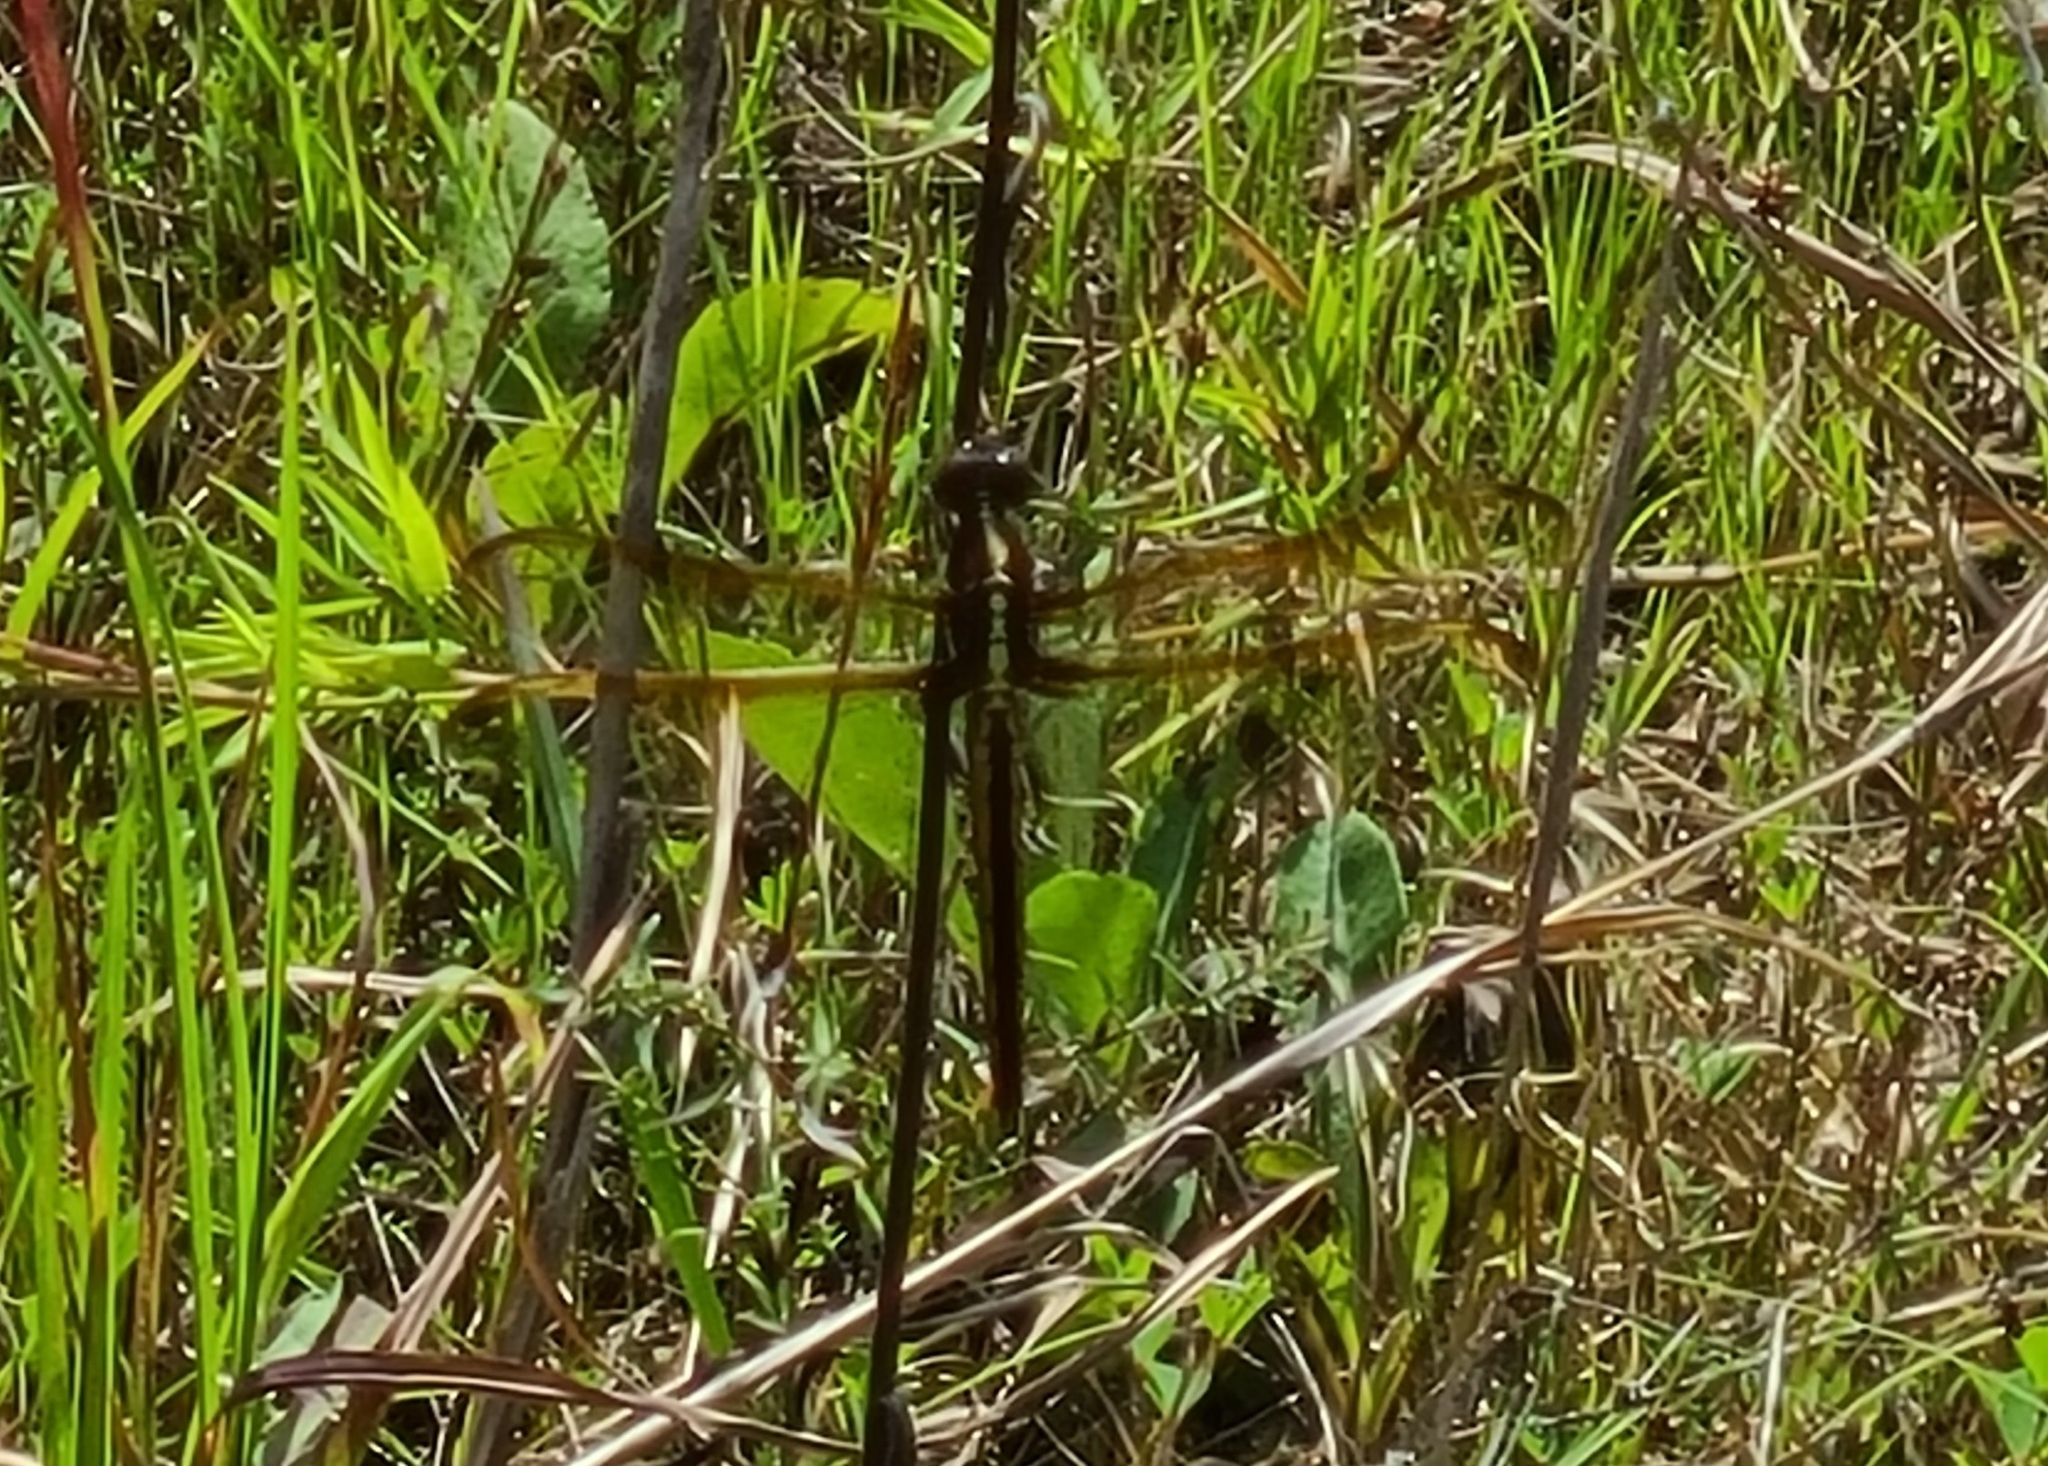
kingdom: Animalia
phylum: Arthropoda
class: Insecta
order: Odonata
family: Libellulidae
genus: Libellula
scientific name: Libellula flavida
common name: Yellow-sided skimmer
